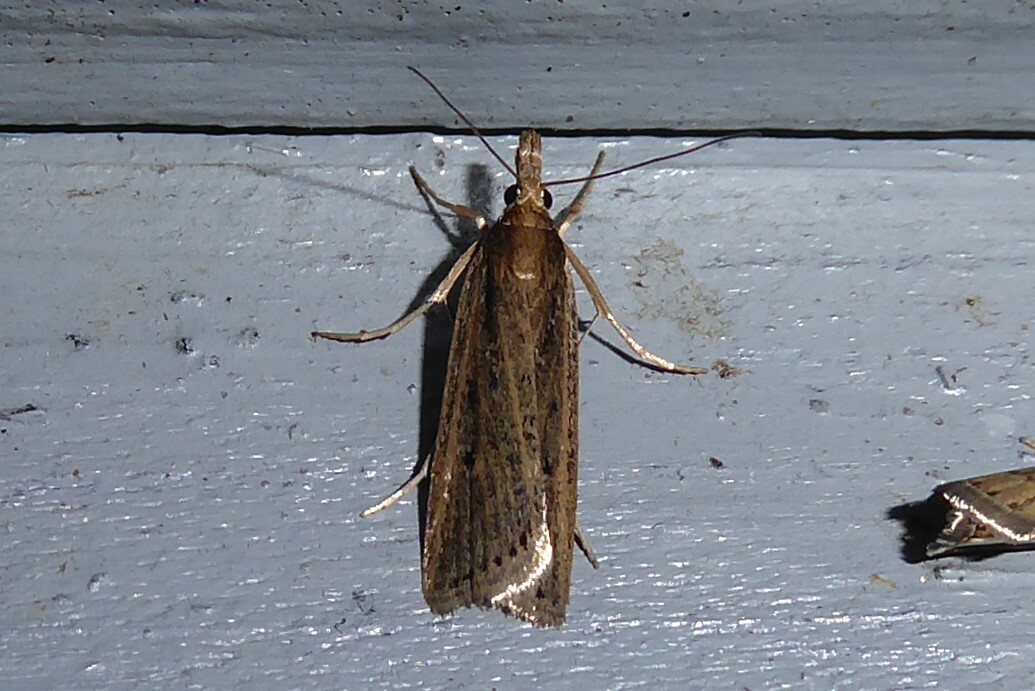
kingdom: Animalia
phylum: Arthropoda
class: Insecta
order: Lepidoptera
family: Crambidae
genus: Eudonia
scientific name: Eudonia sabulosella
